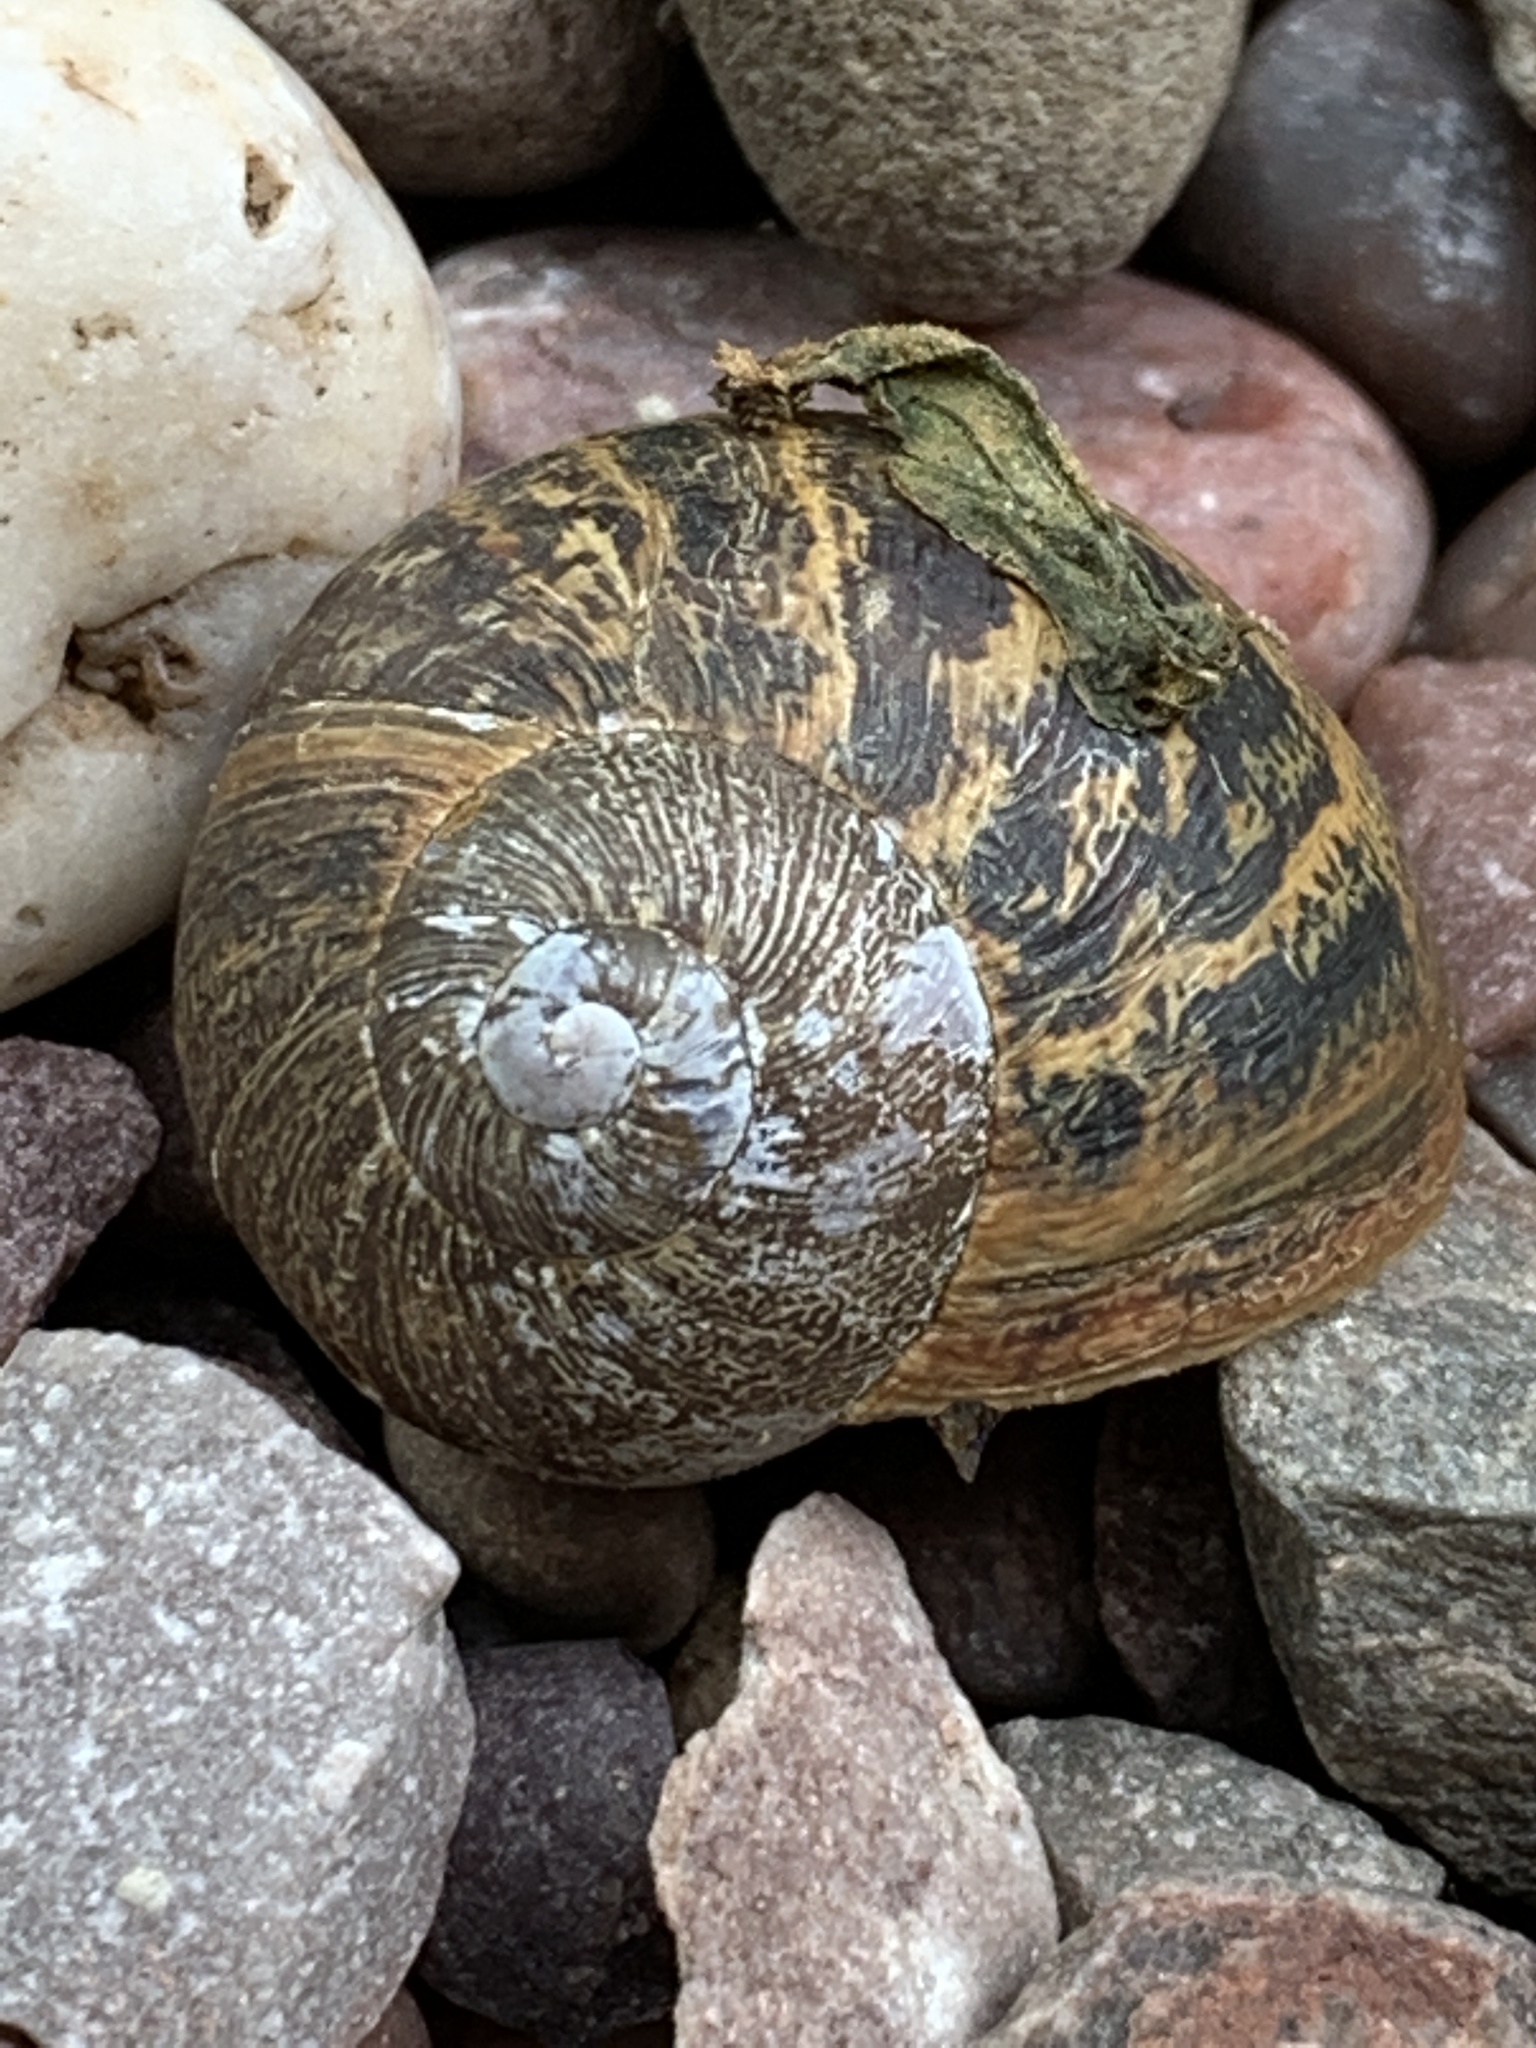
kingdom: Animalia
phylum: Mollusca
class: Gastropoda
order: Stylommatophora
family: Helicidae
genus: Cornu
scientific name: Cornu aspersum
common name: Brown garden snail
